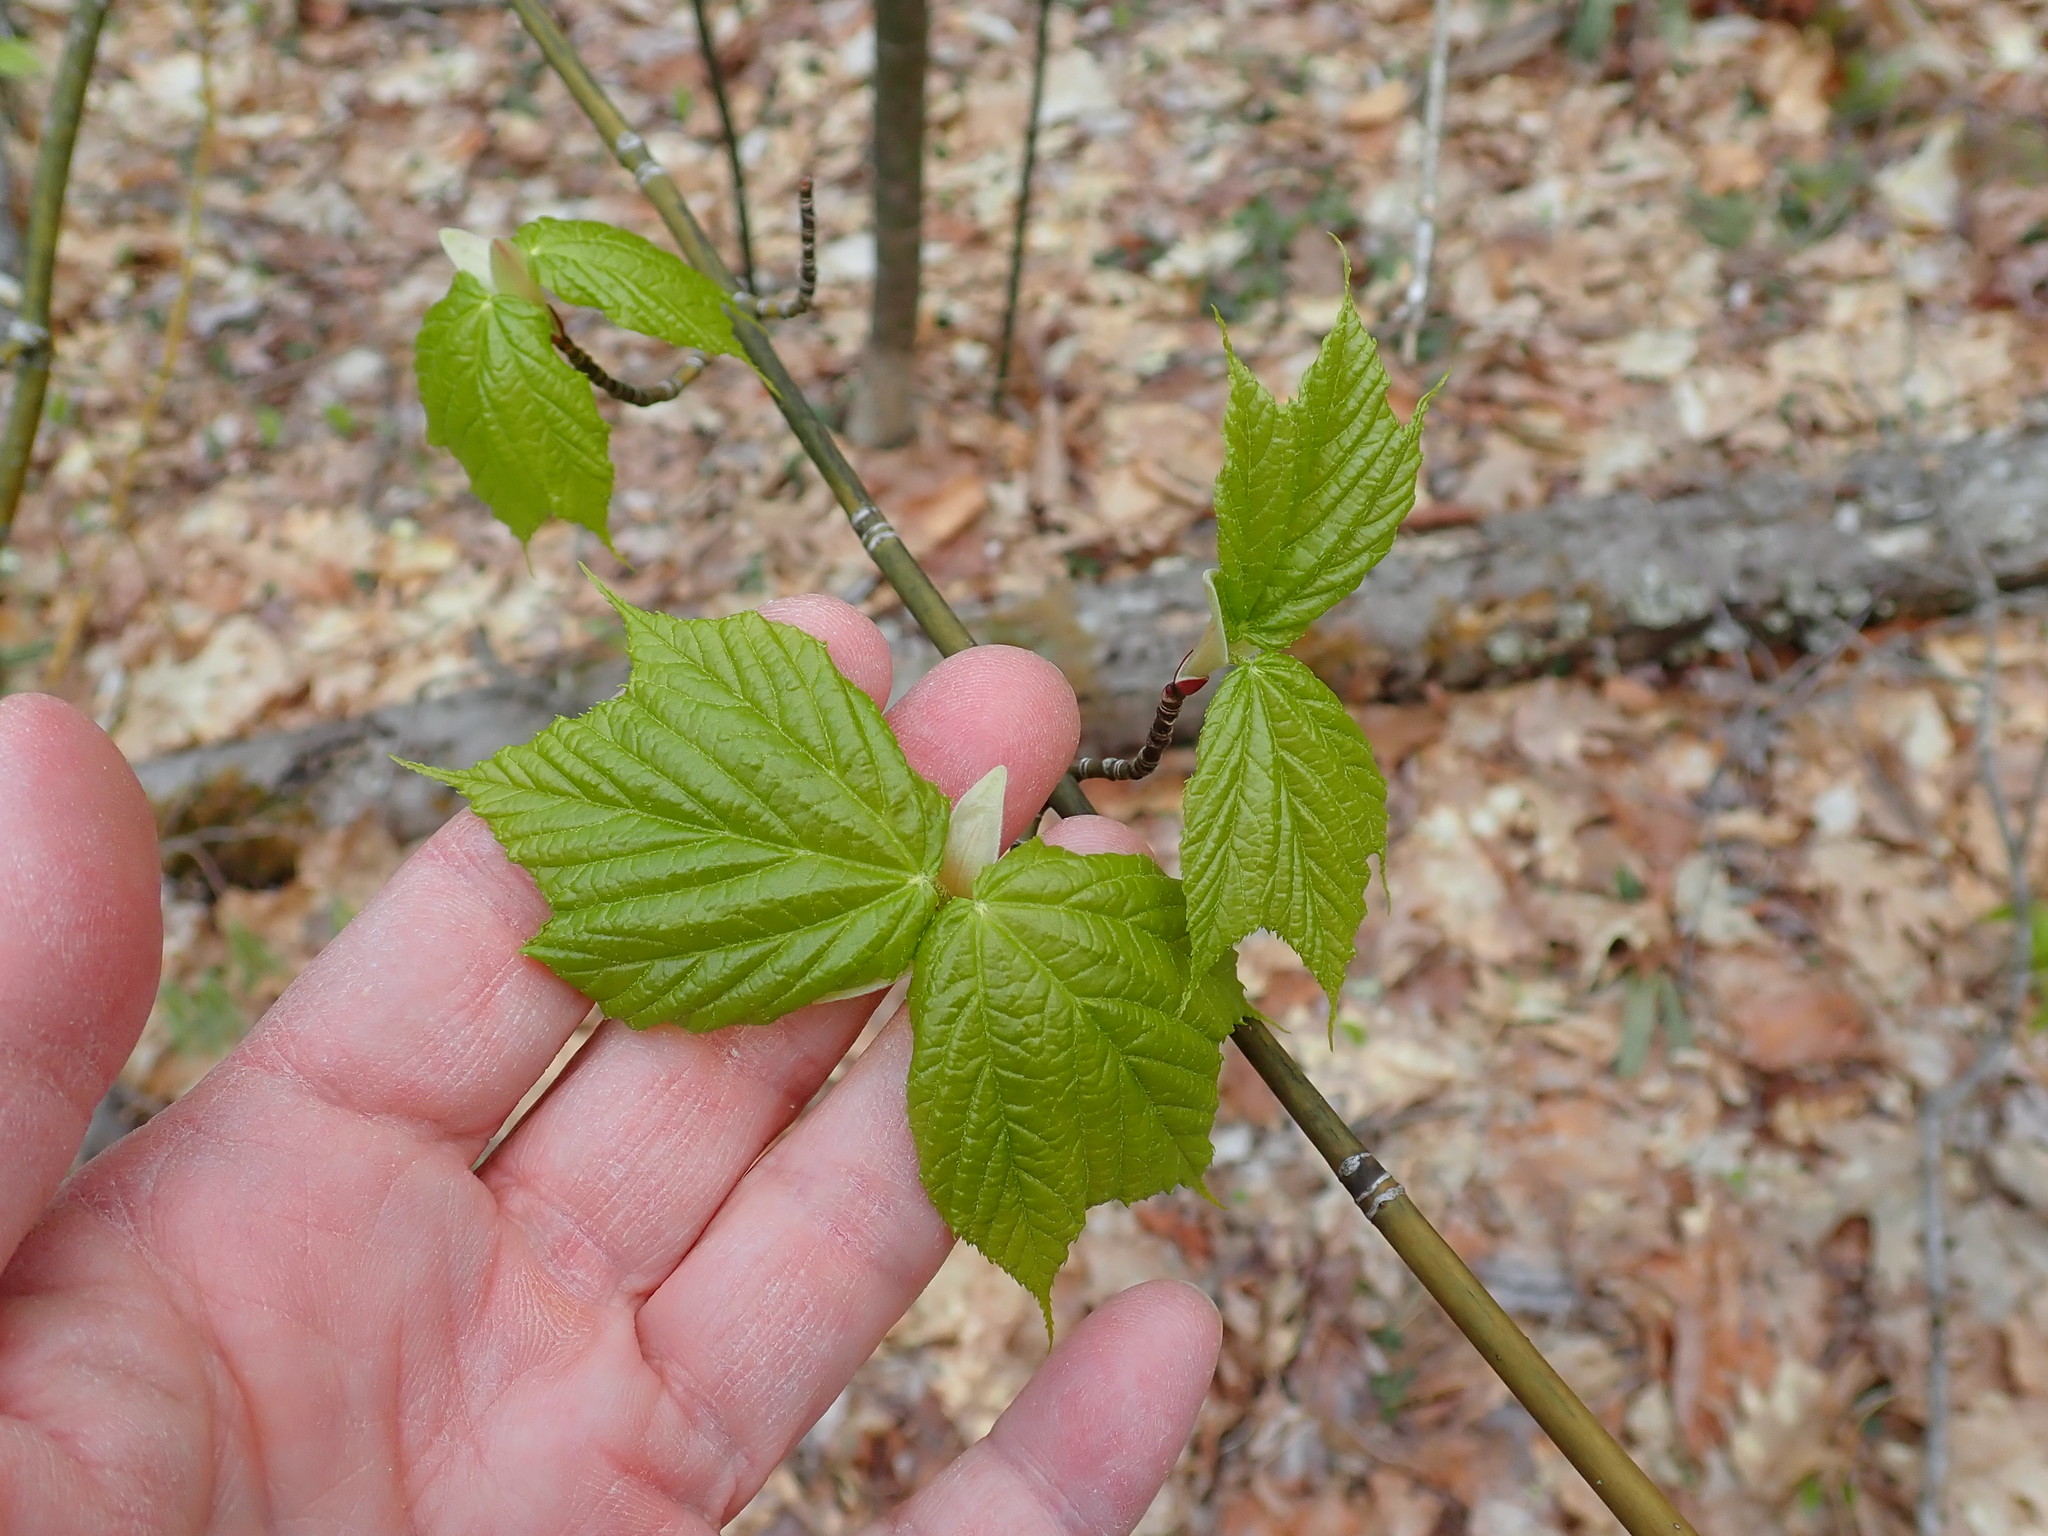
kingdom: Plantae
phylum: Tracheophyta
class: Magnoliopsida
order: Sapindales
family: Sapindaceae
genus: Acer
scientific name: Acer pensylvanicum
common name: Moosewood
